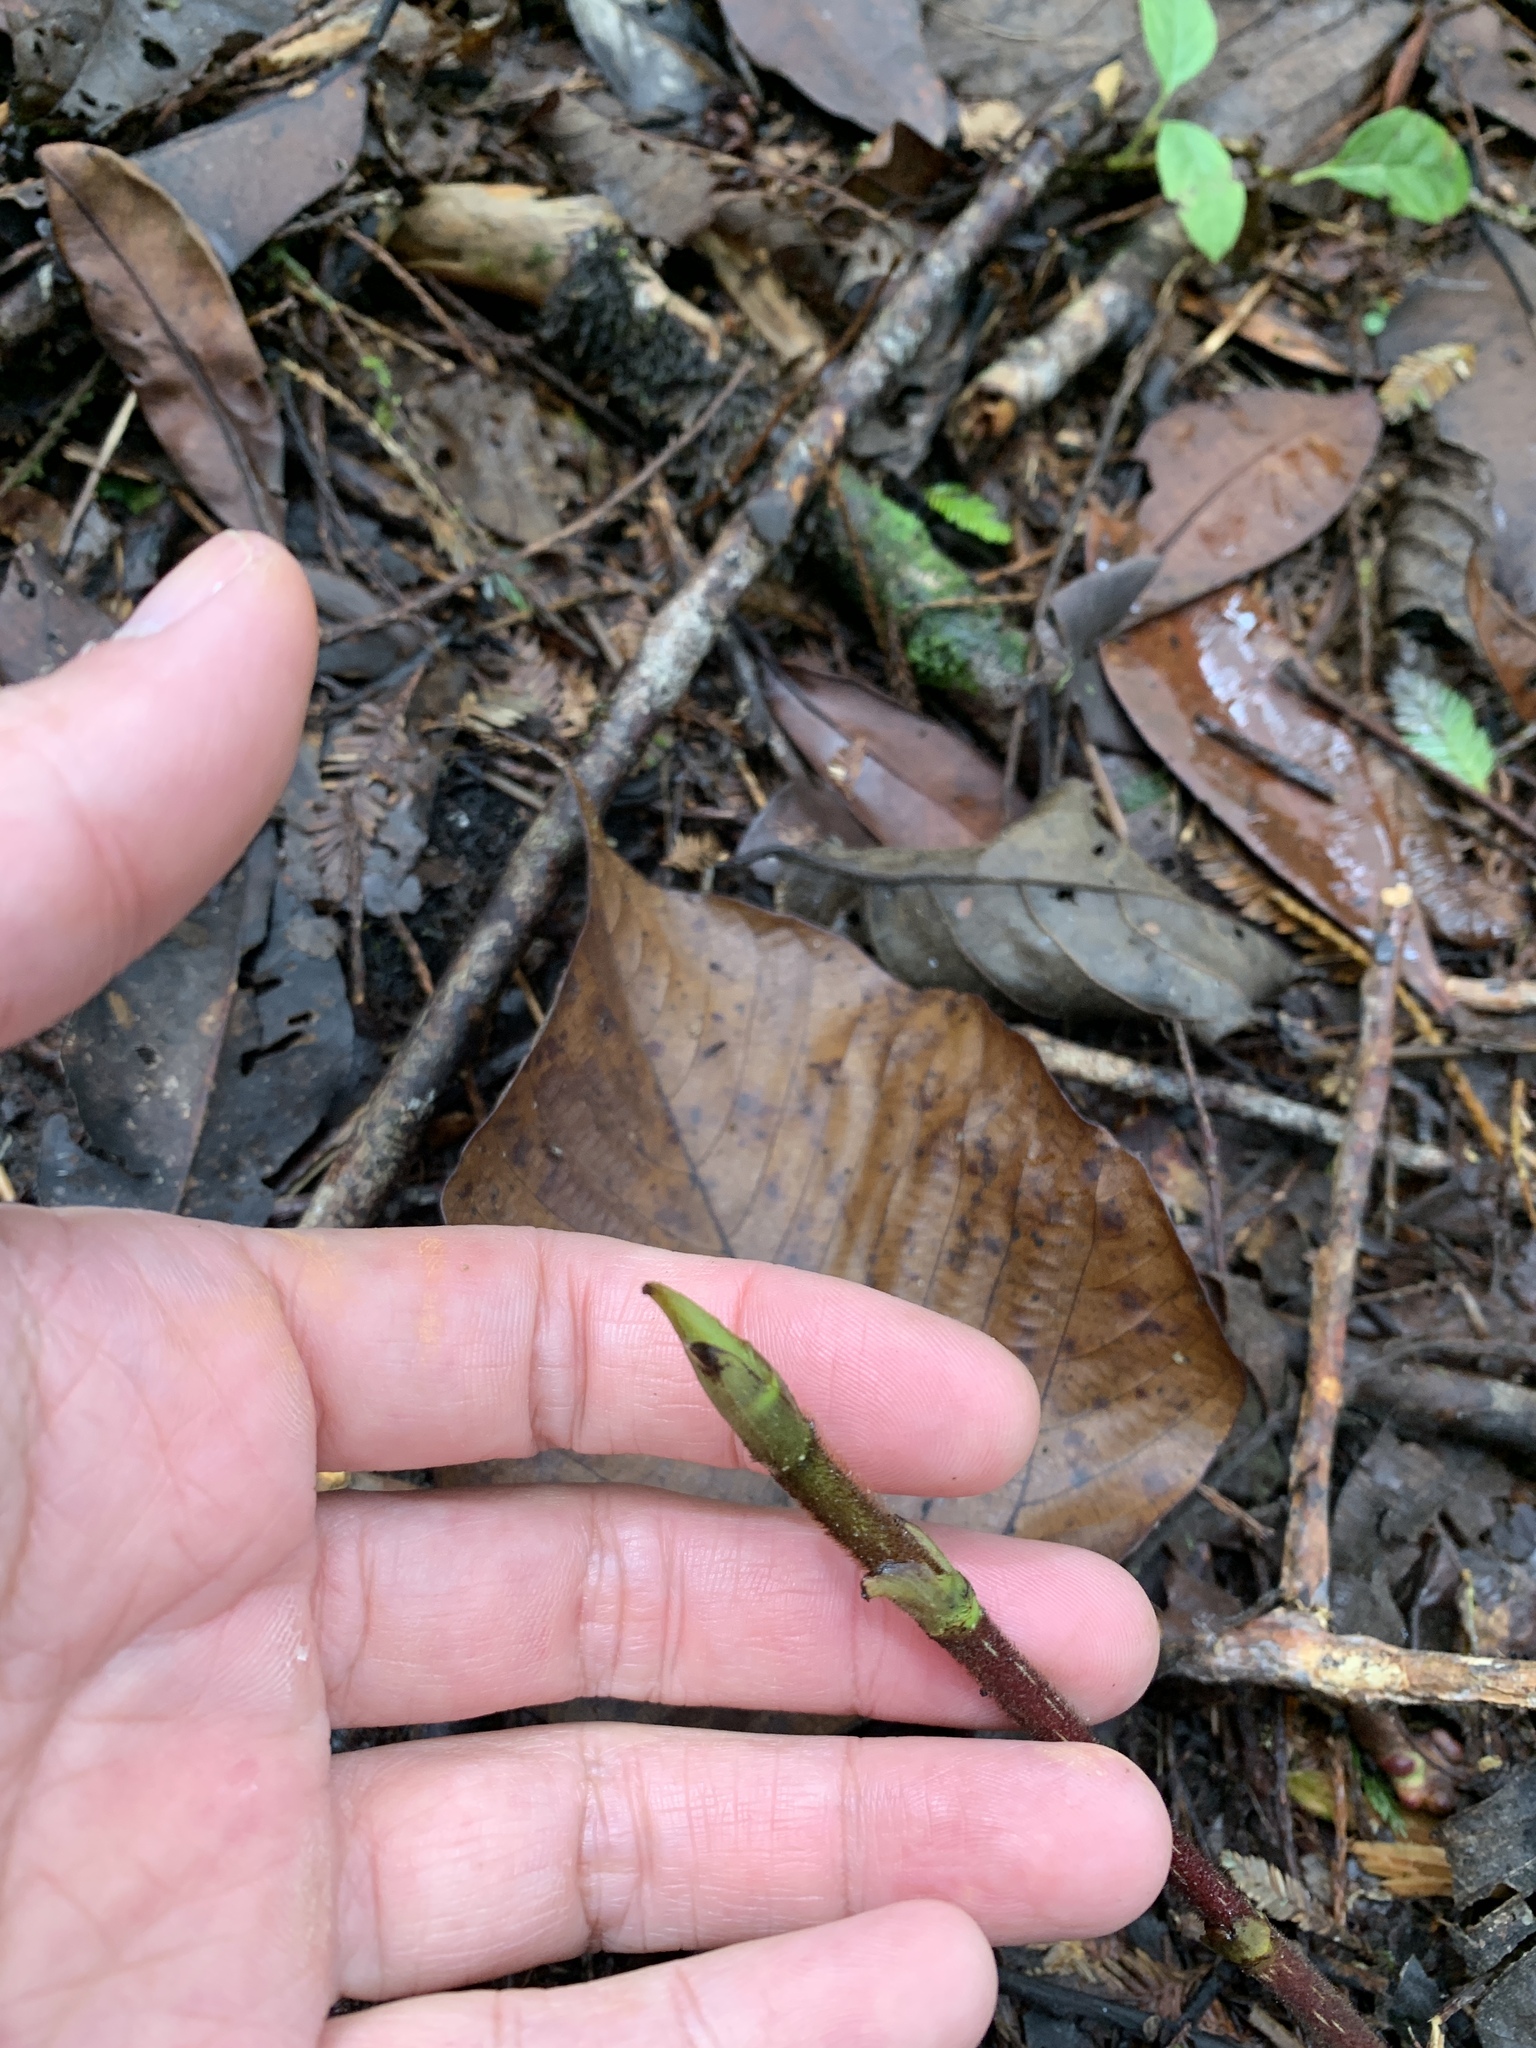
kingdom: Plantae
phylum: Tracheophyta
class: Magnoliopsida
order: Rosales
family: Moraceae
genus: Ficus
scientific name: Ficus malayana
